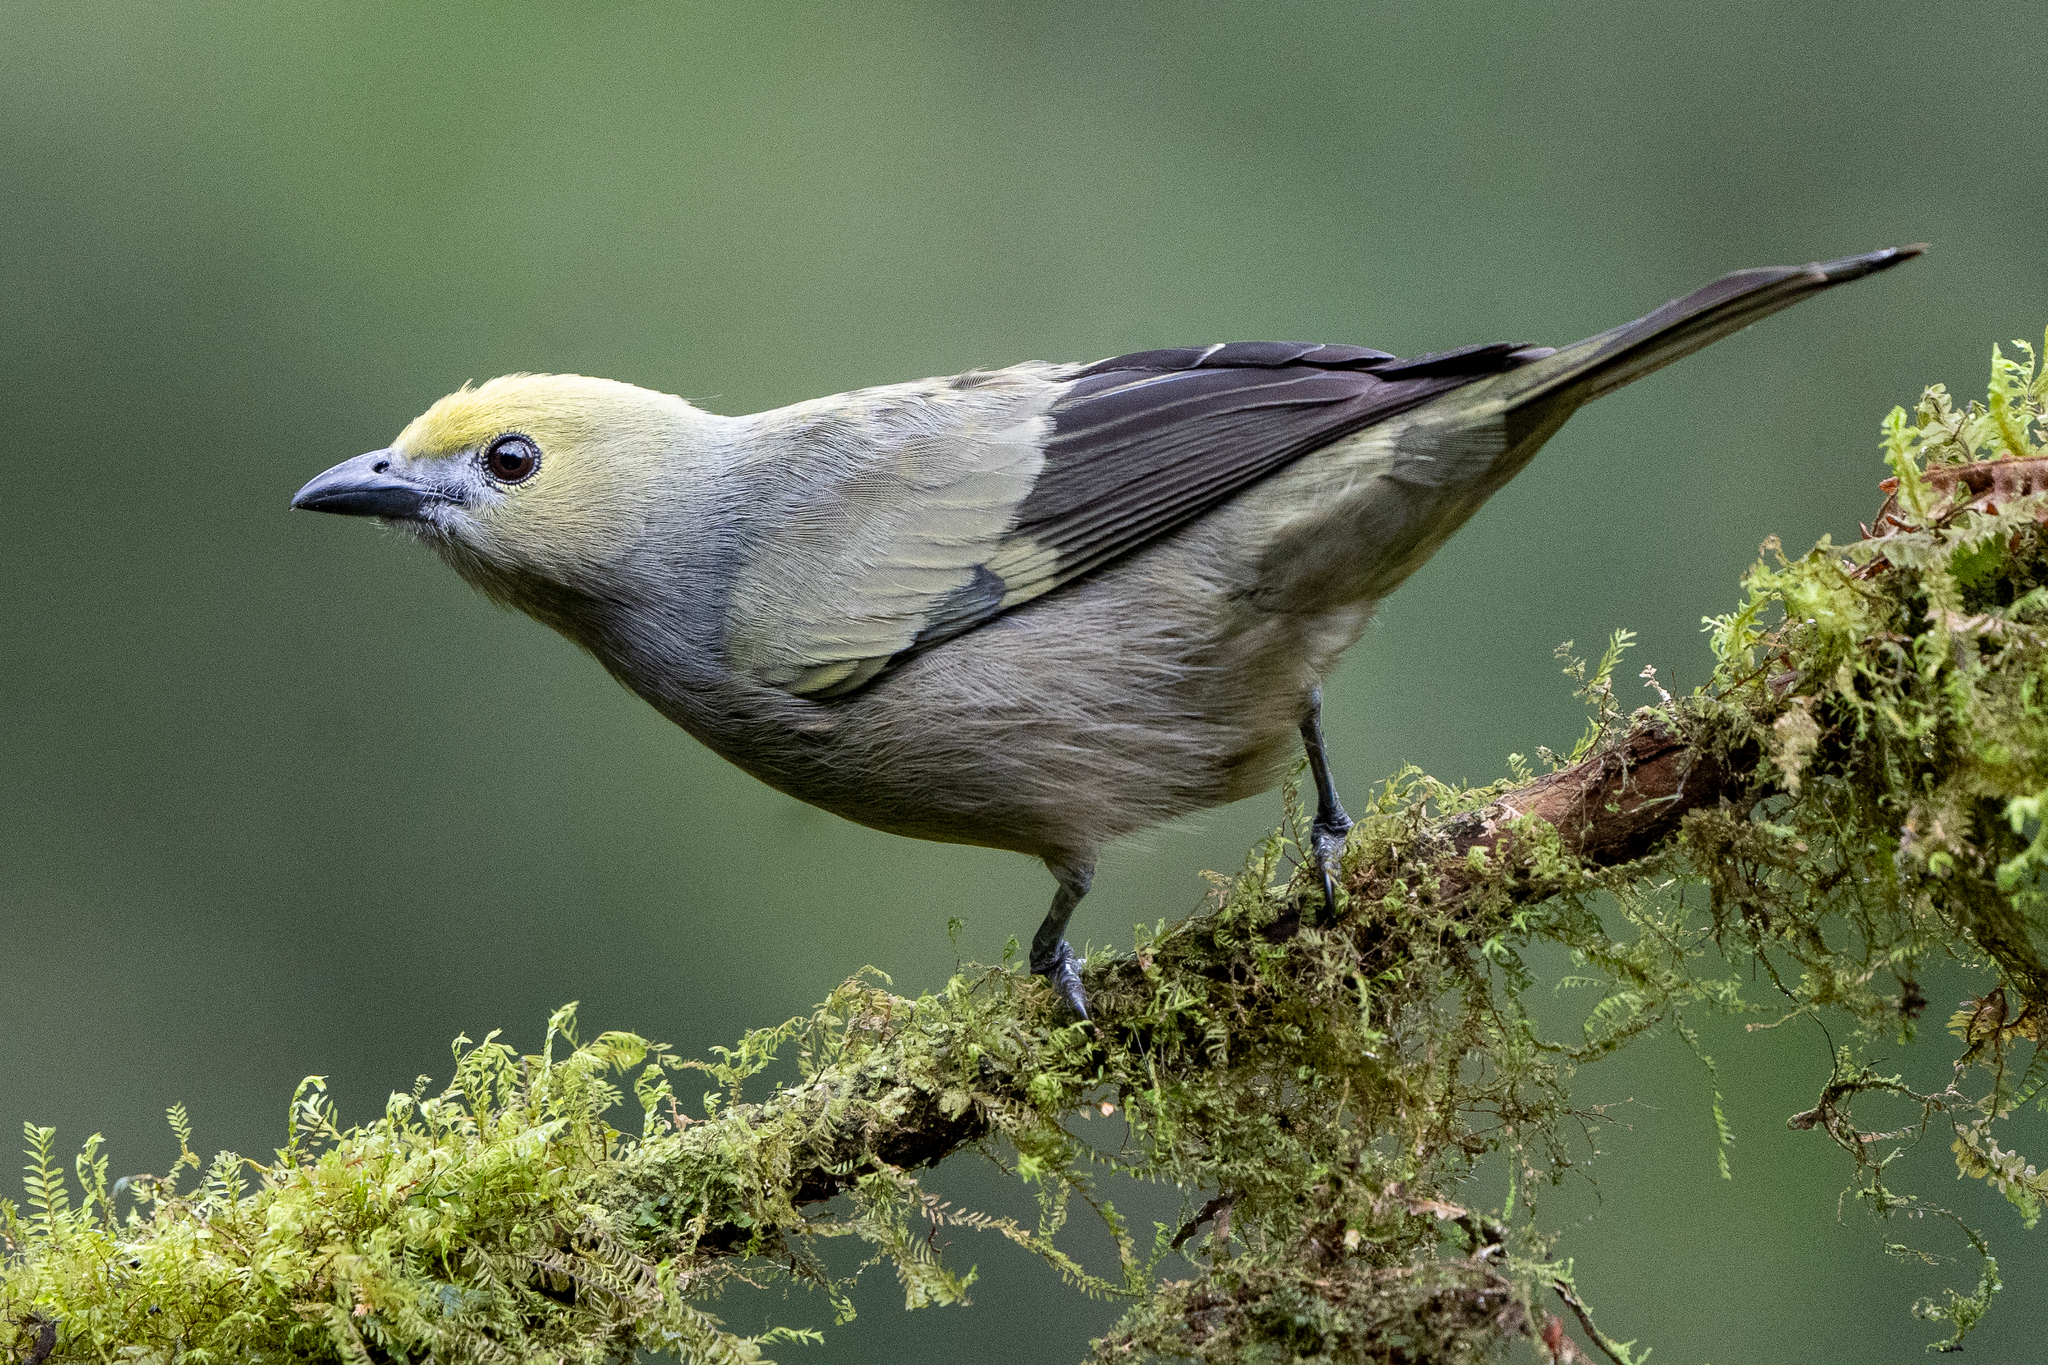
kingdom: Animalia
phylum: Chordata
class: Aves
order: Passeriformes
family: Thraupidae
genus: Thraupis
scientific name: Thraupis palmarum
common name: Palm tanager
